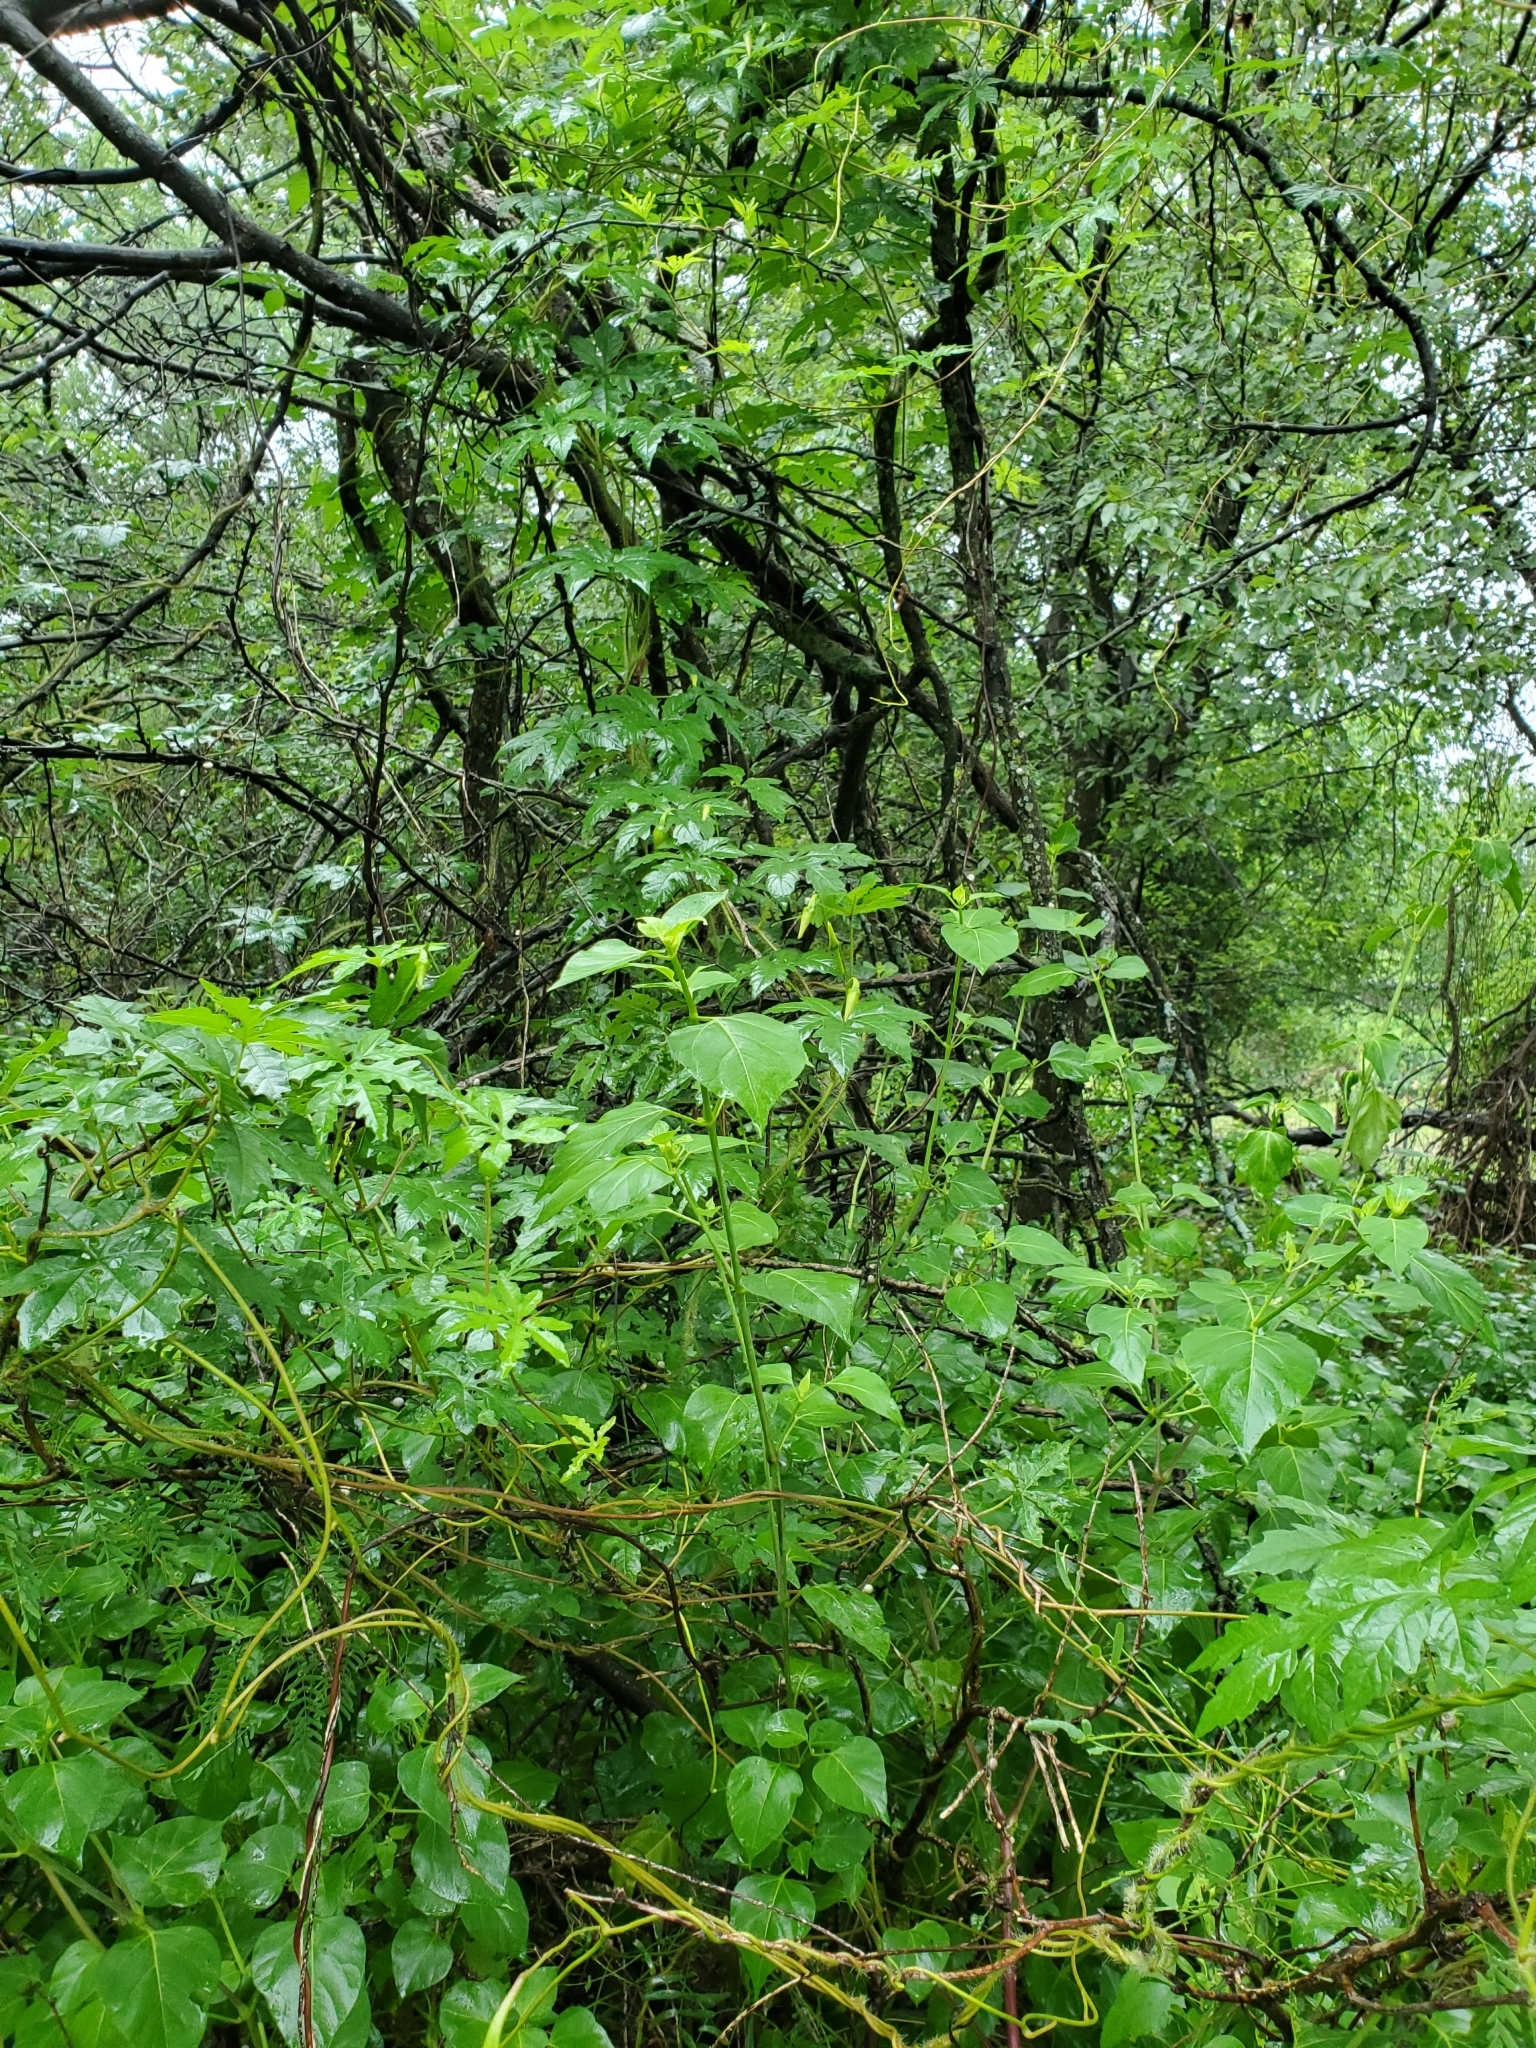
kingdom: Plantae
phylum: Tracheophyta
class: Magnoliopsida
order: Solanales
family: Convolvulaceae
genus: Distimake
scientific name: Distimake dissectus
